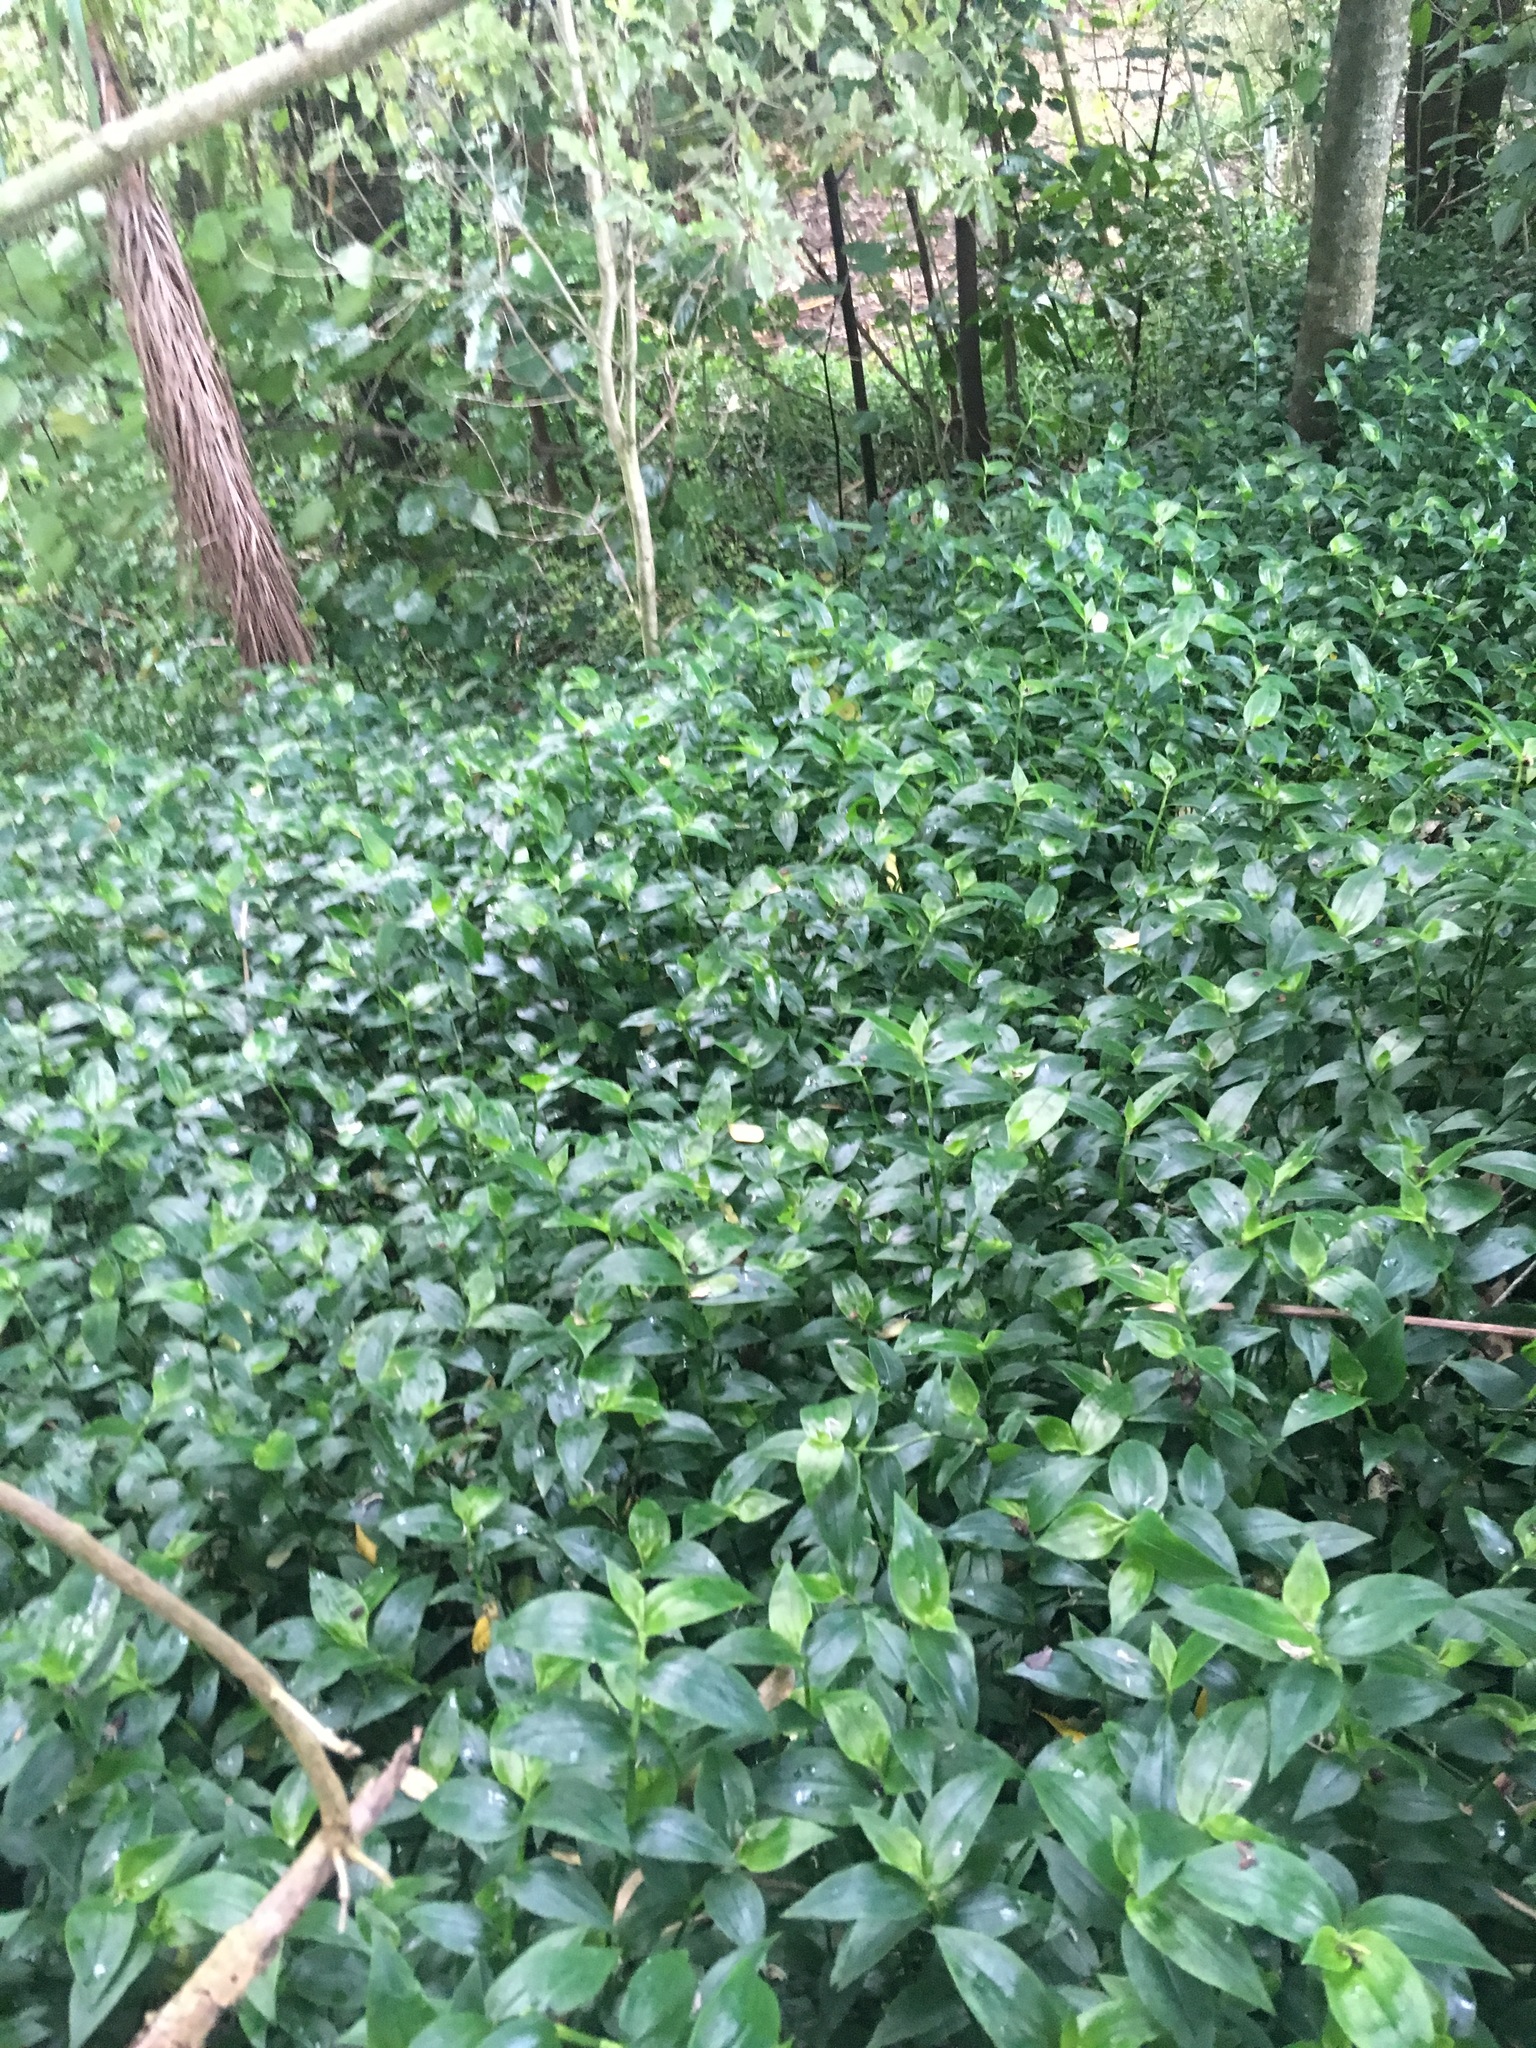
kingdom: Plantae
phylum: Tracheophyta
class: Liliopsida
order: Commelinales
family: Commelinaceae
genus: Tradescantia
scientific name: Tradescantia fluminensis
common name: Wandering-jew
